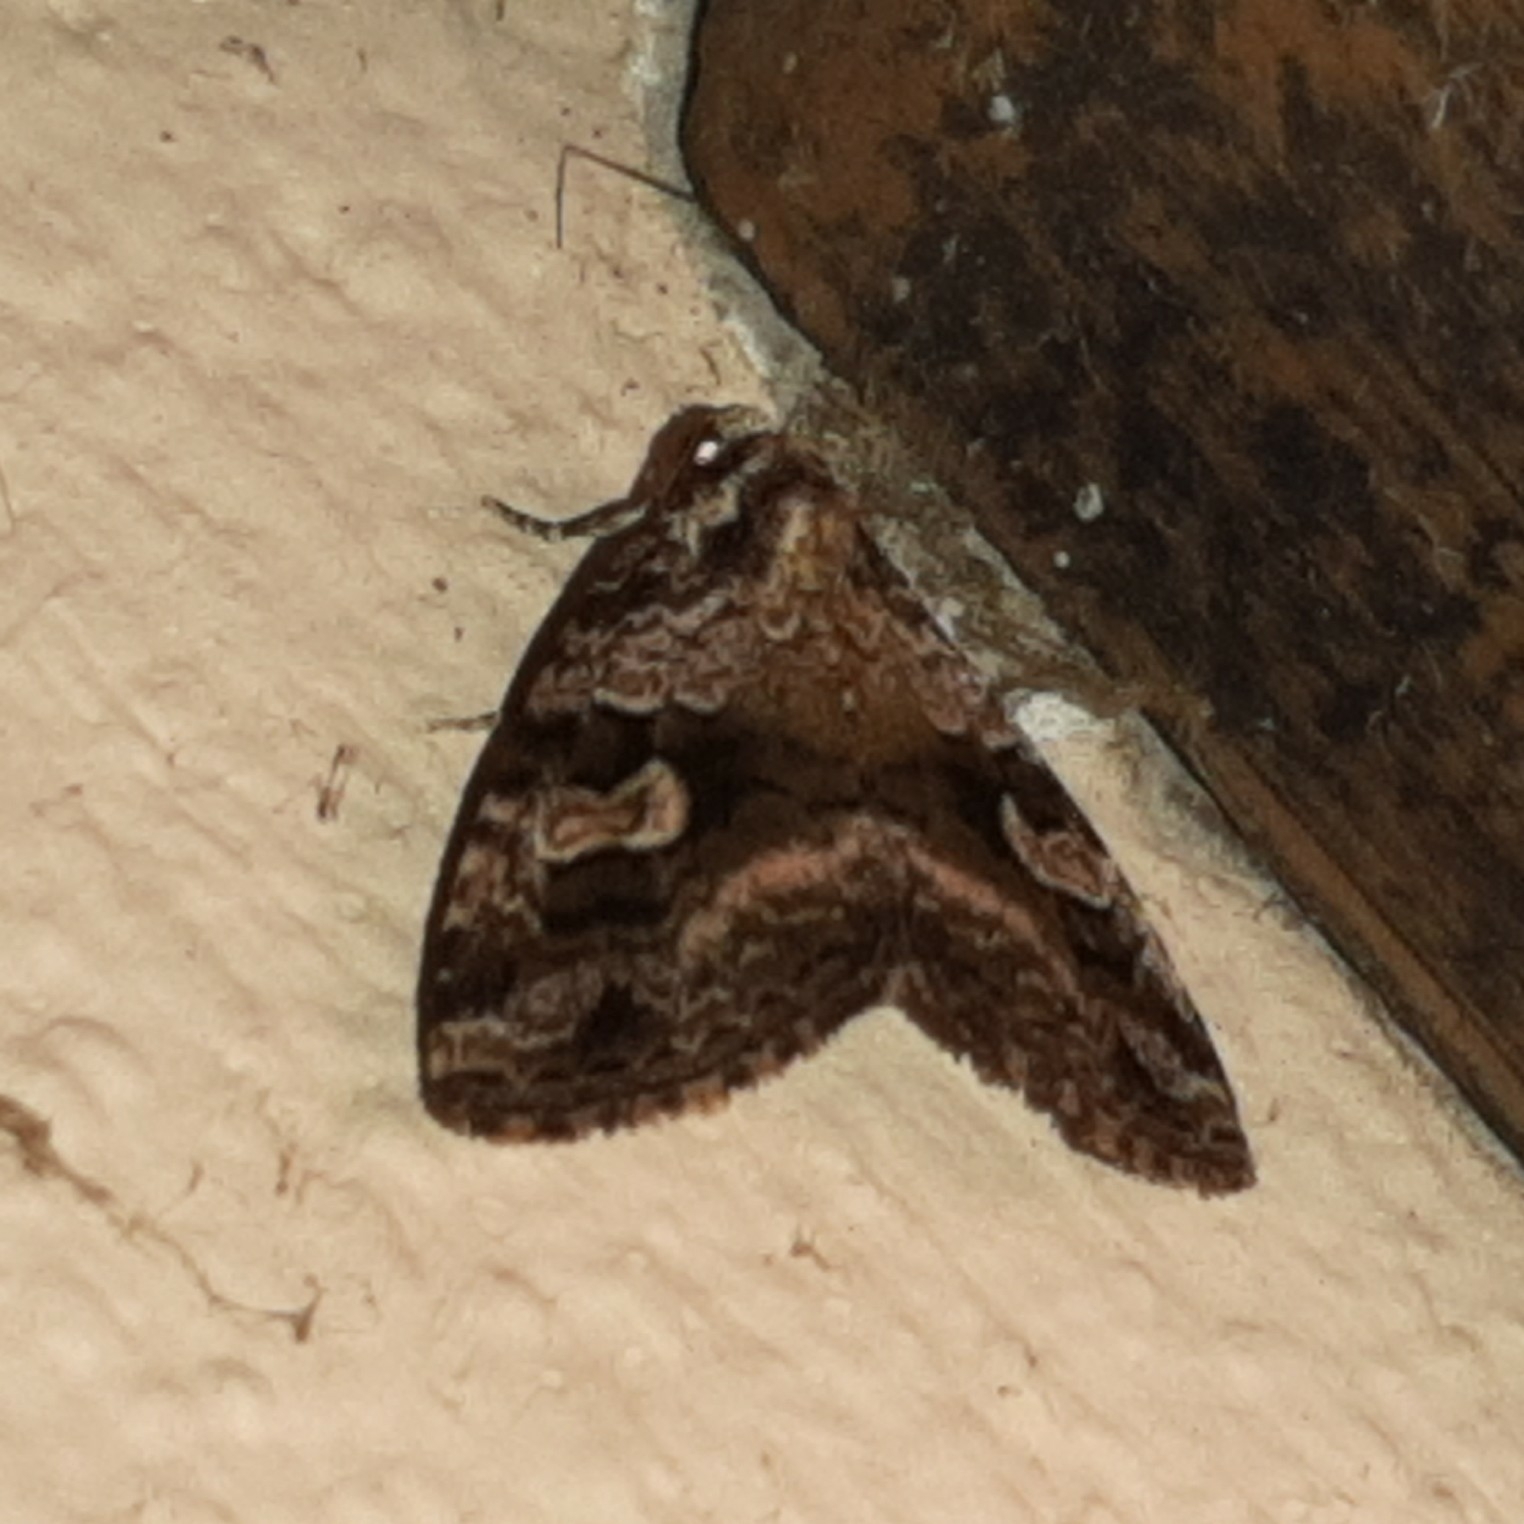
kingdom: Animalia
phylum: Arthropoda
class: Insecta
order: Lepidoptera
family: Noctuidae
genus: Mictochroa
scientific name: Mictochroa zonella
